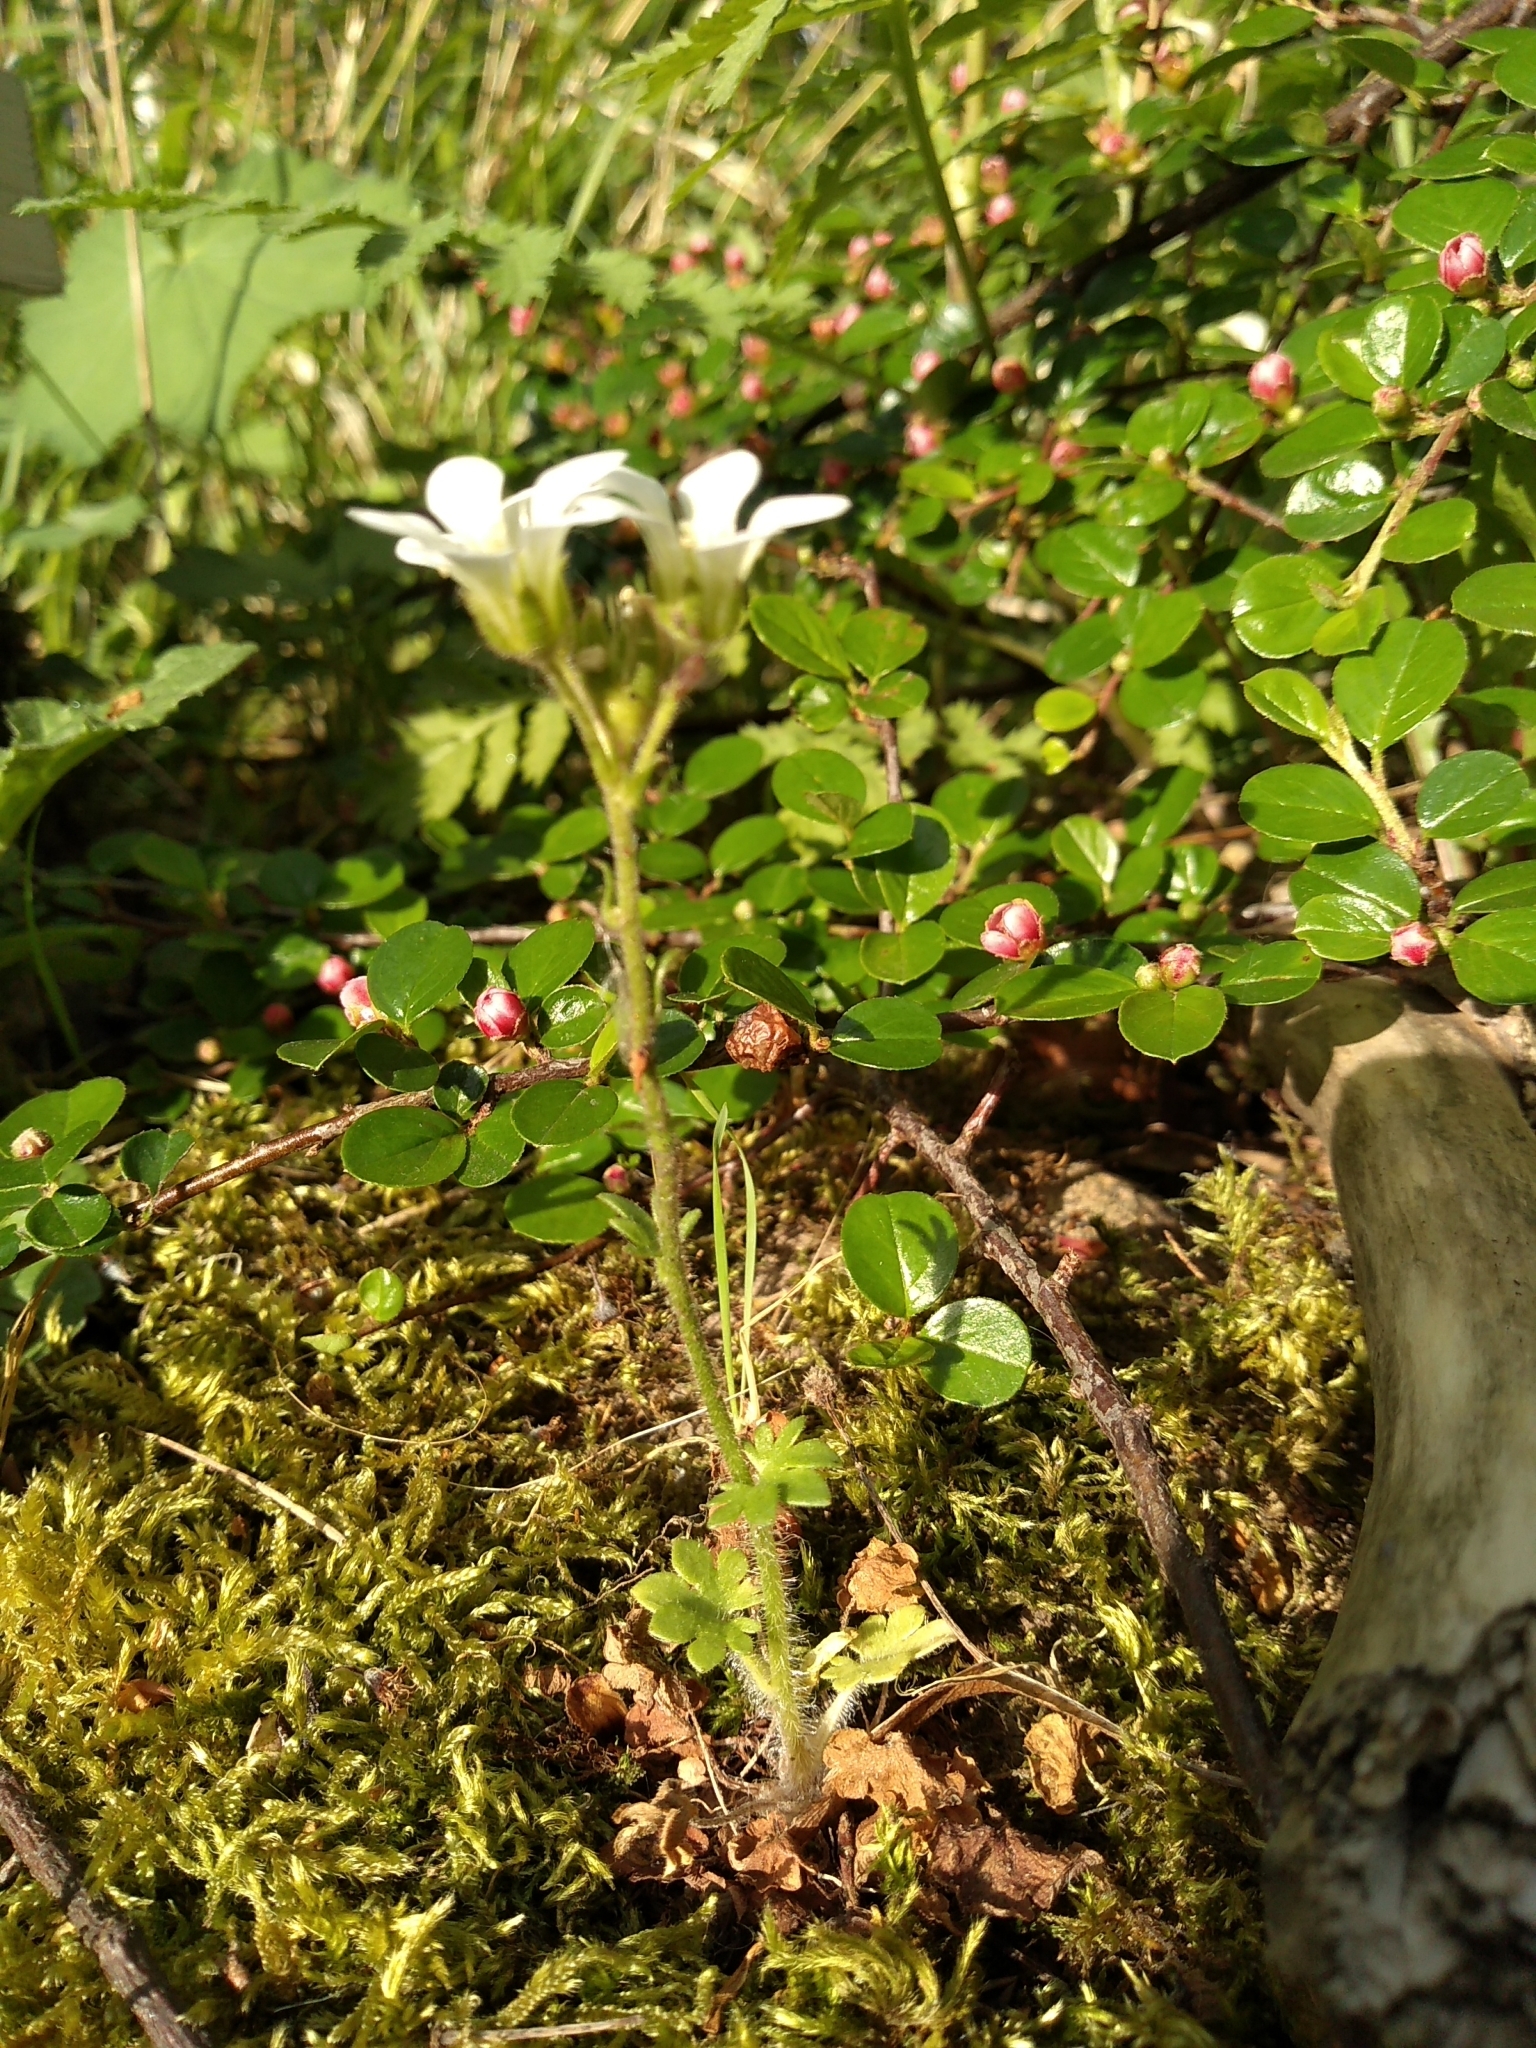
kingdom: Plantae
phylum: Tracheophyta
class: Magnoliopsida
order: Saxifragales
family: Saxifragaceae
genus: Saxifraga
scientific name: Saxifraga granulata
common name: Meadow saxifrage
